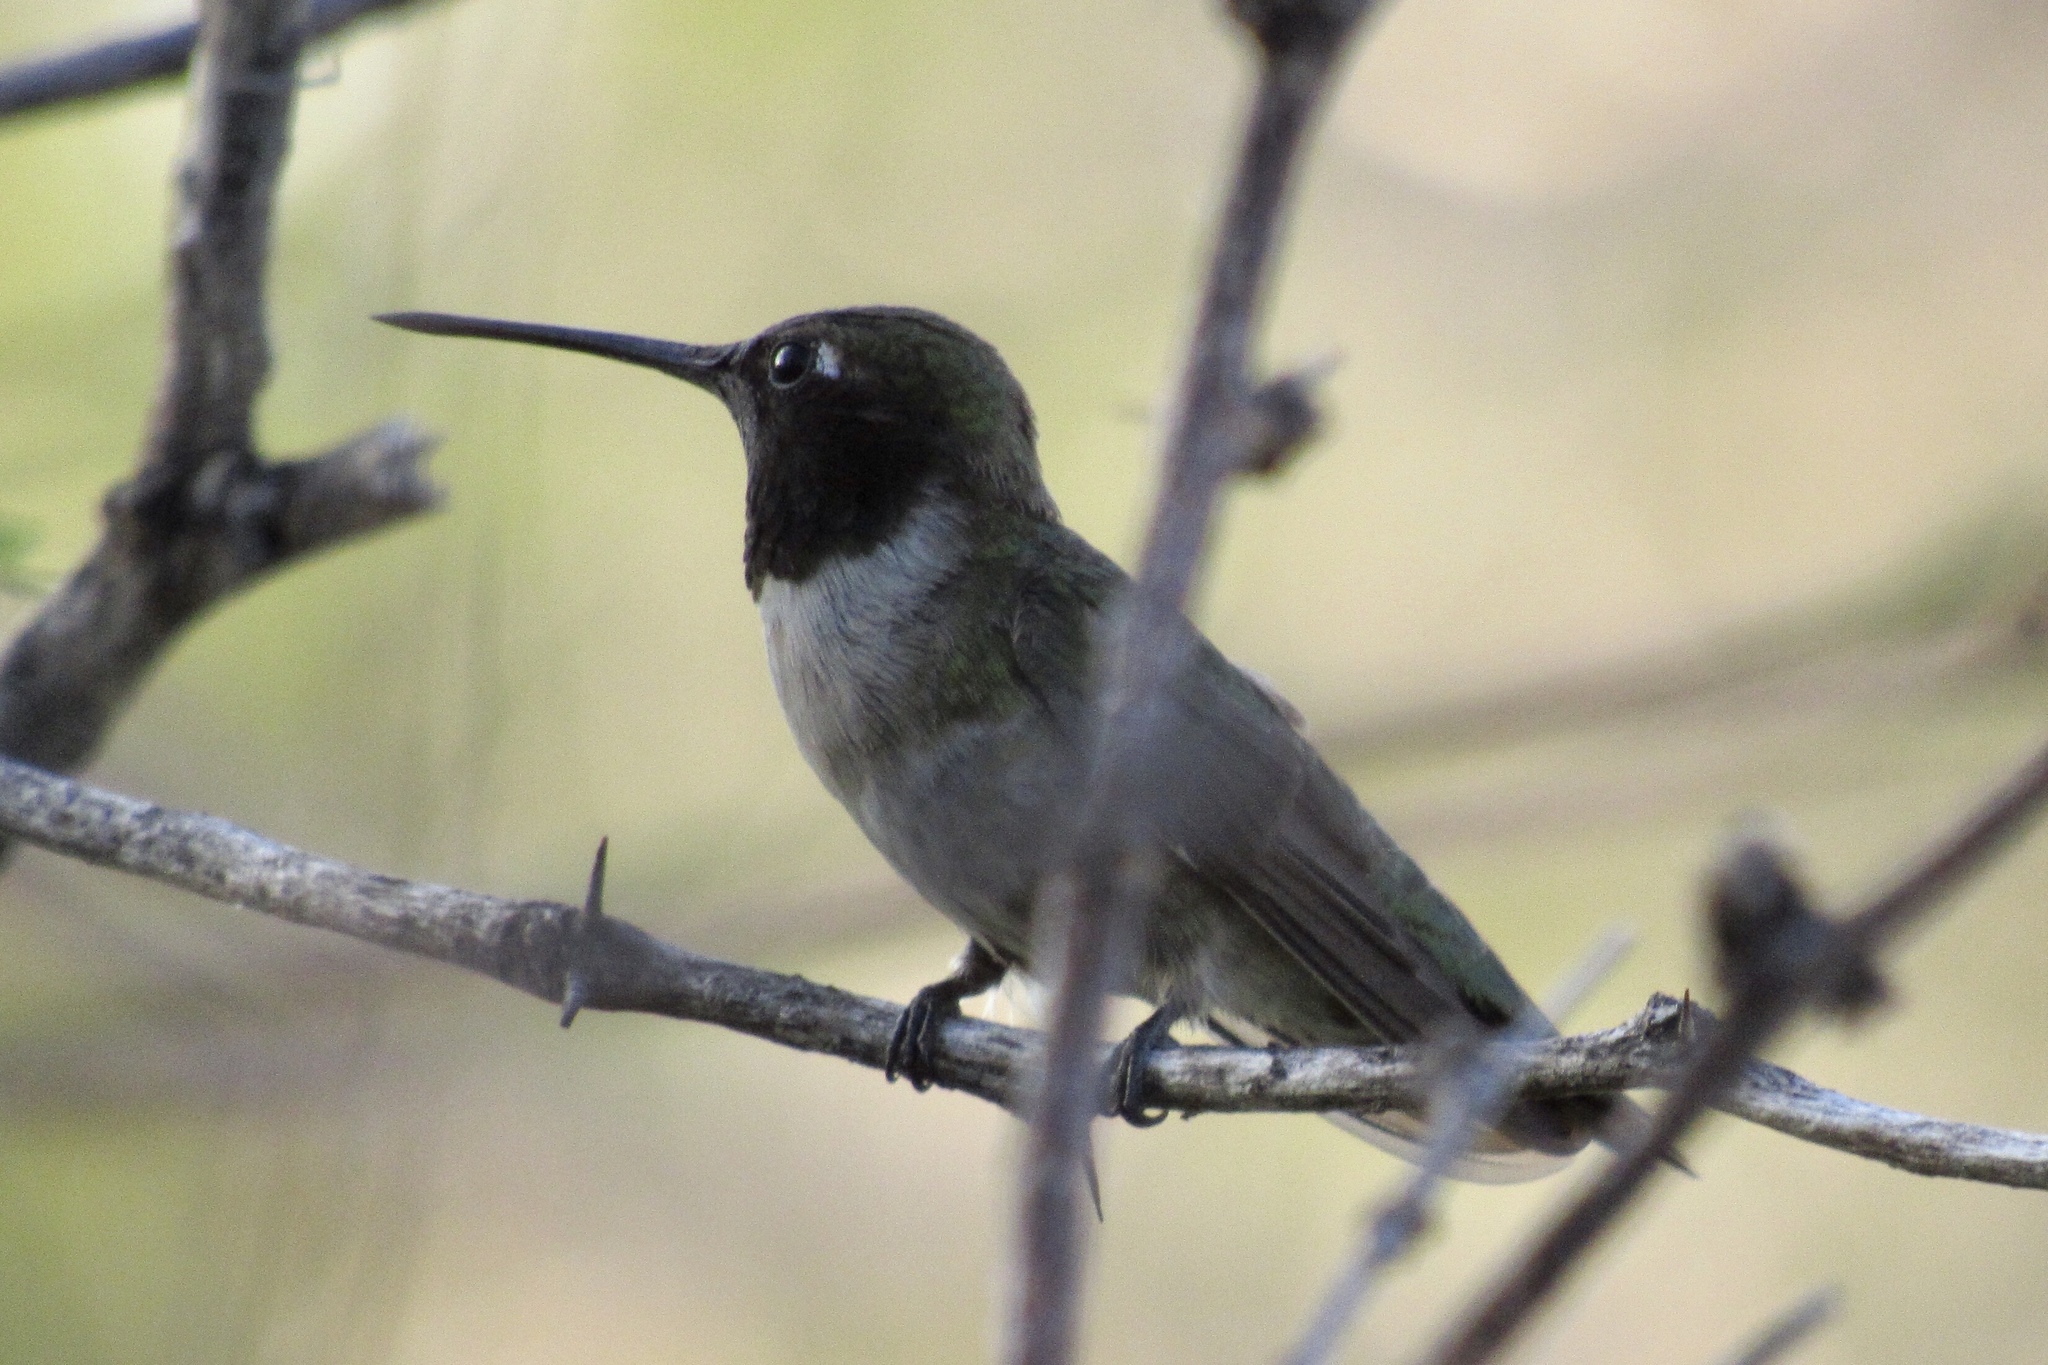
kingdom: Animalia
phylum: Chordata
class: Aves
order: Apodiformes
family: Trochilidae
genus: Archilochus
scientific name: Archilochus alexandri
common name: Black-chinned hummingbird
